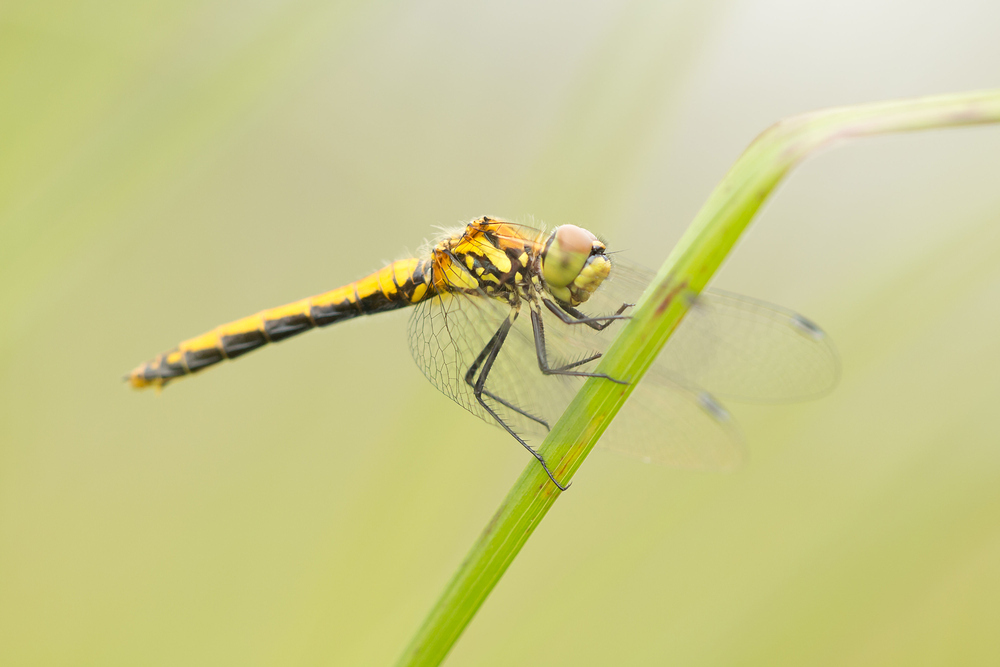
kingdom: Animalia
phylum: Arthropoda
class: Insecta
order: Odonata
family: Libellulidae
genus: Sympetrum
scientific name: Sympetrum danae
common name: Black darter
